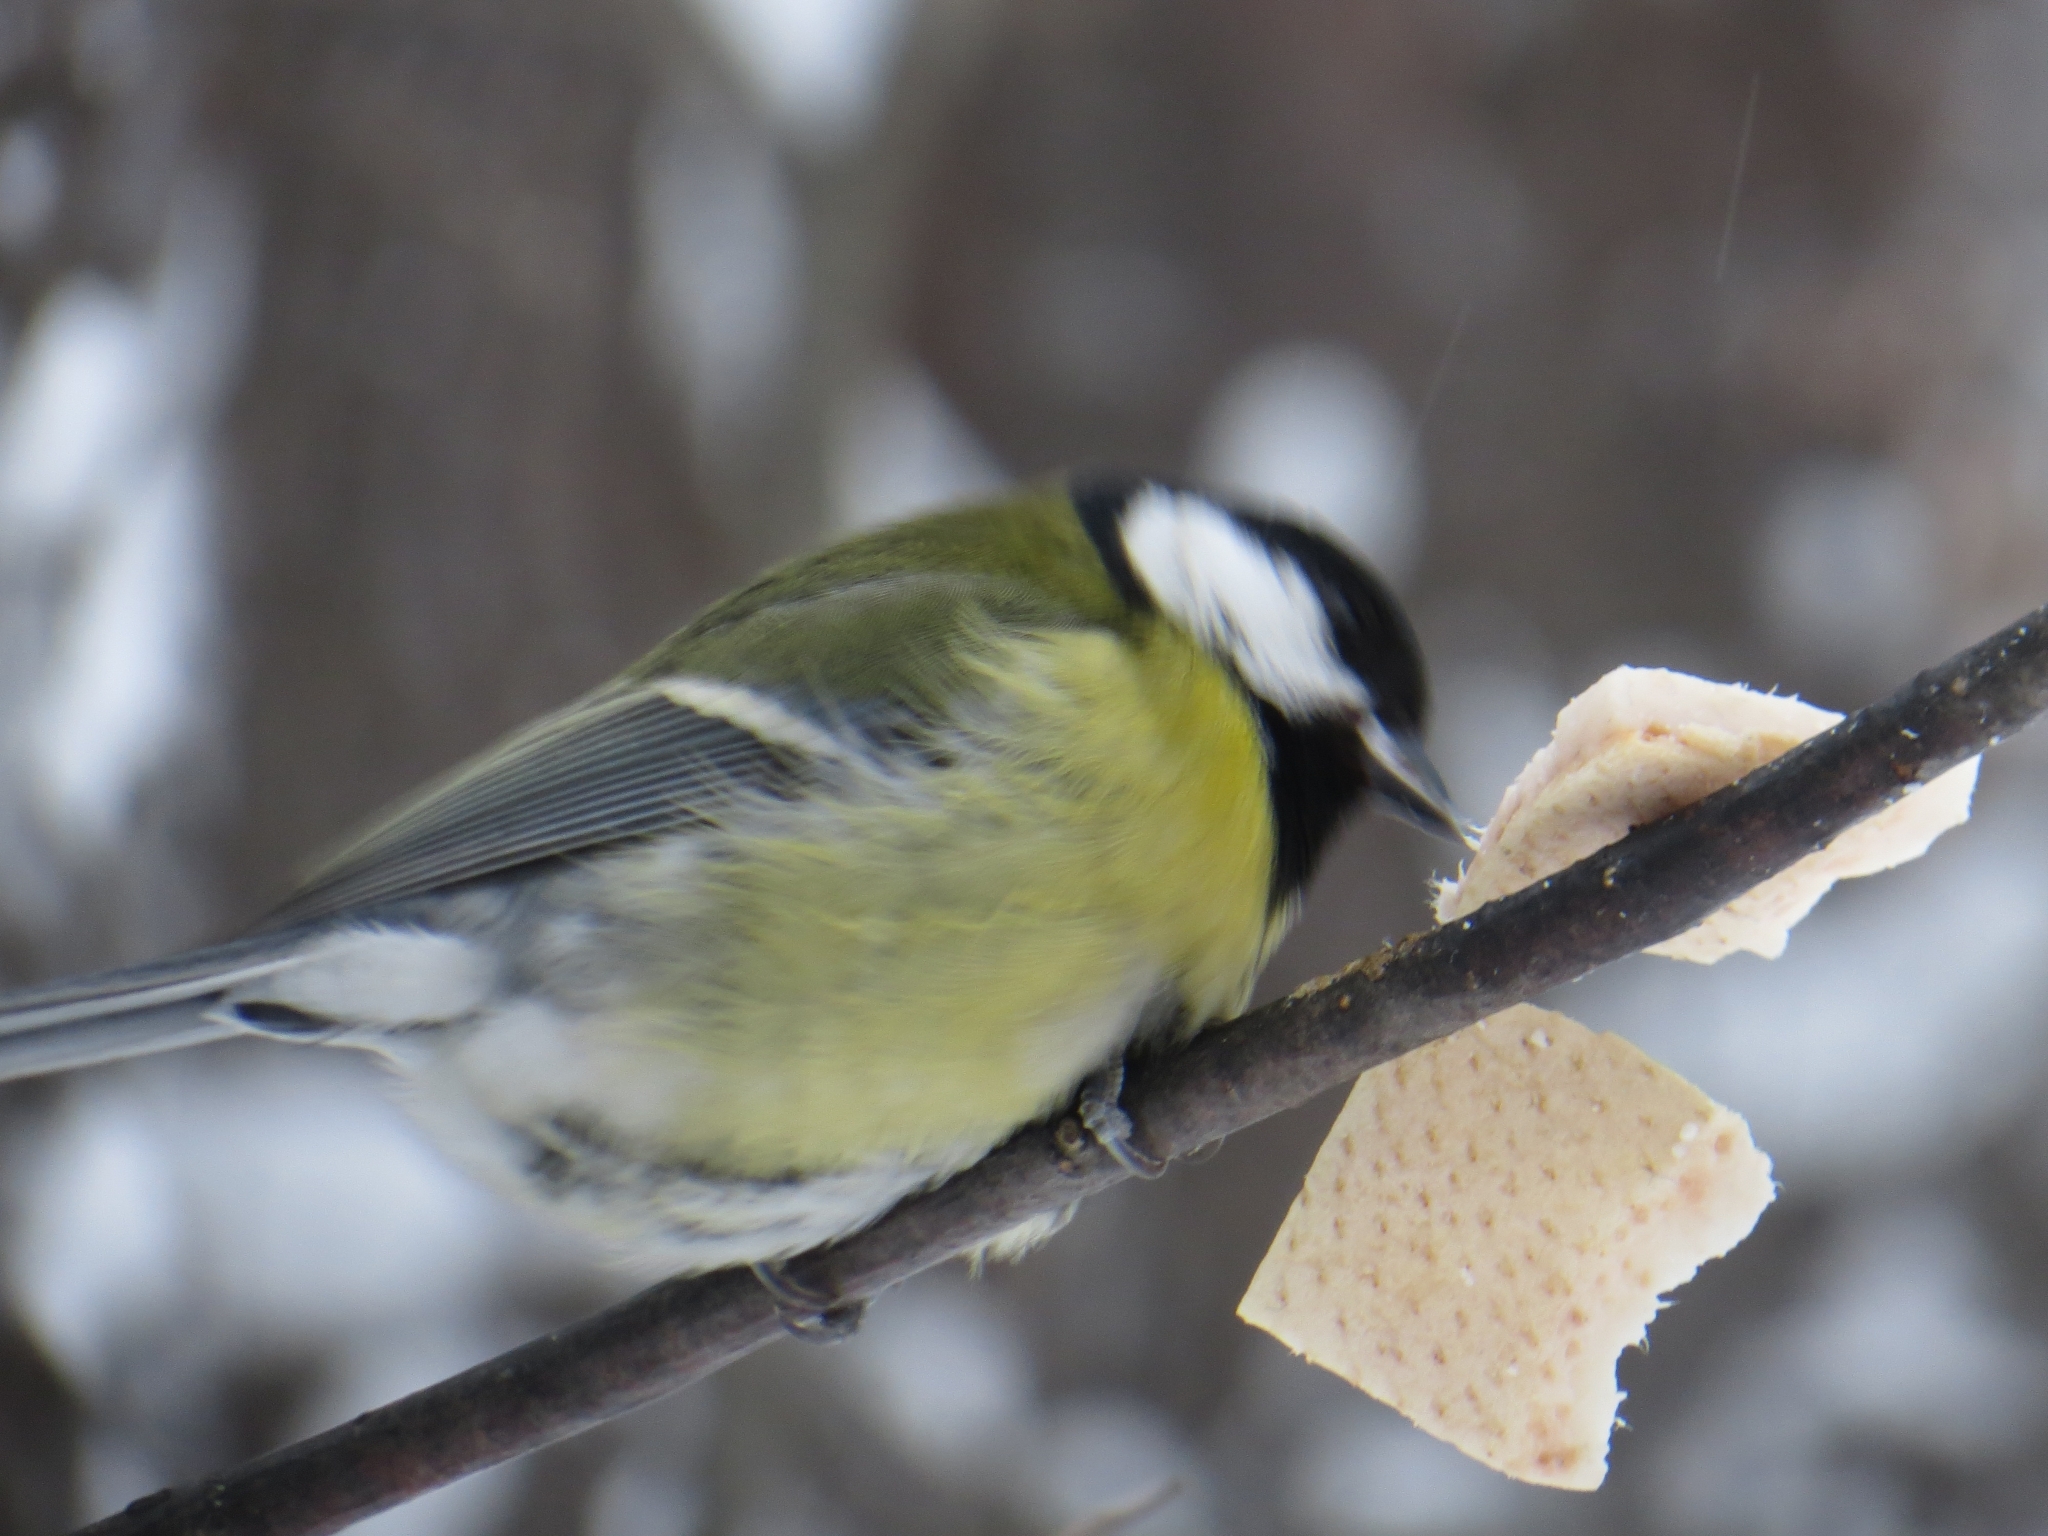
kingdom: Animalia
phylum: Chordata
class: Aves
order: Passeriformes
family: Paridae
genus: Parus
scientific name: Parus major
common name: Great tit
